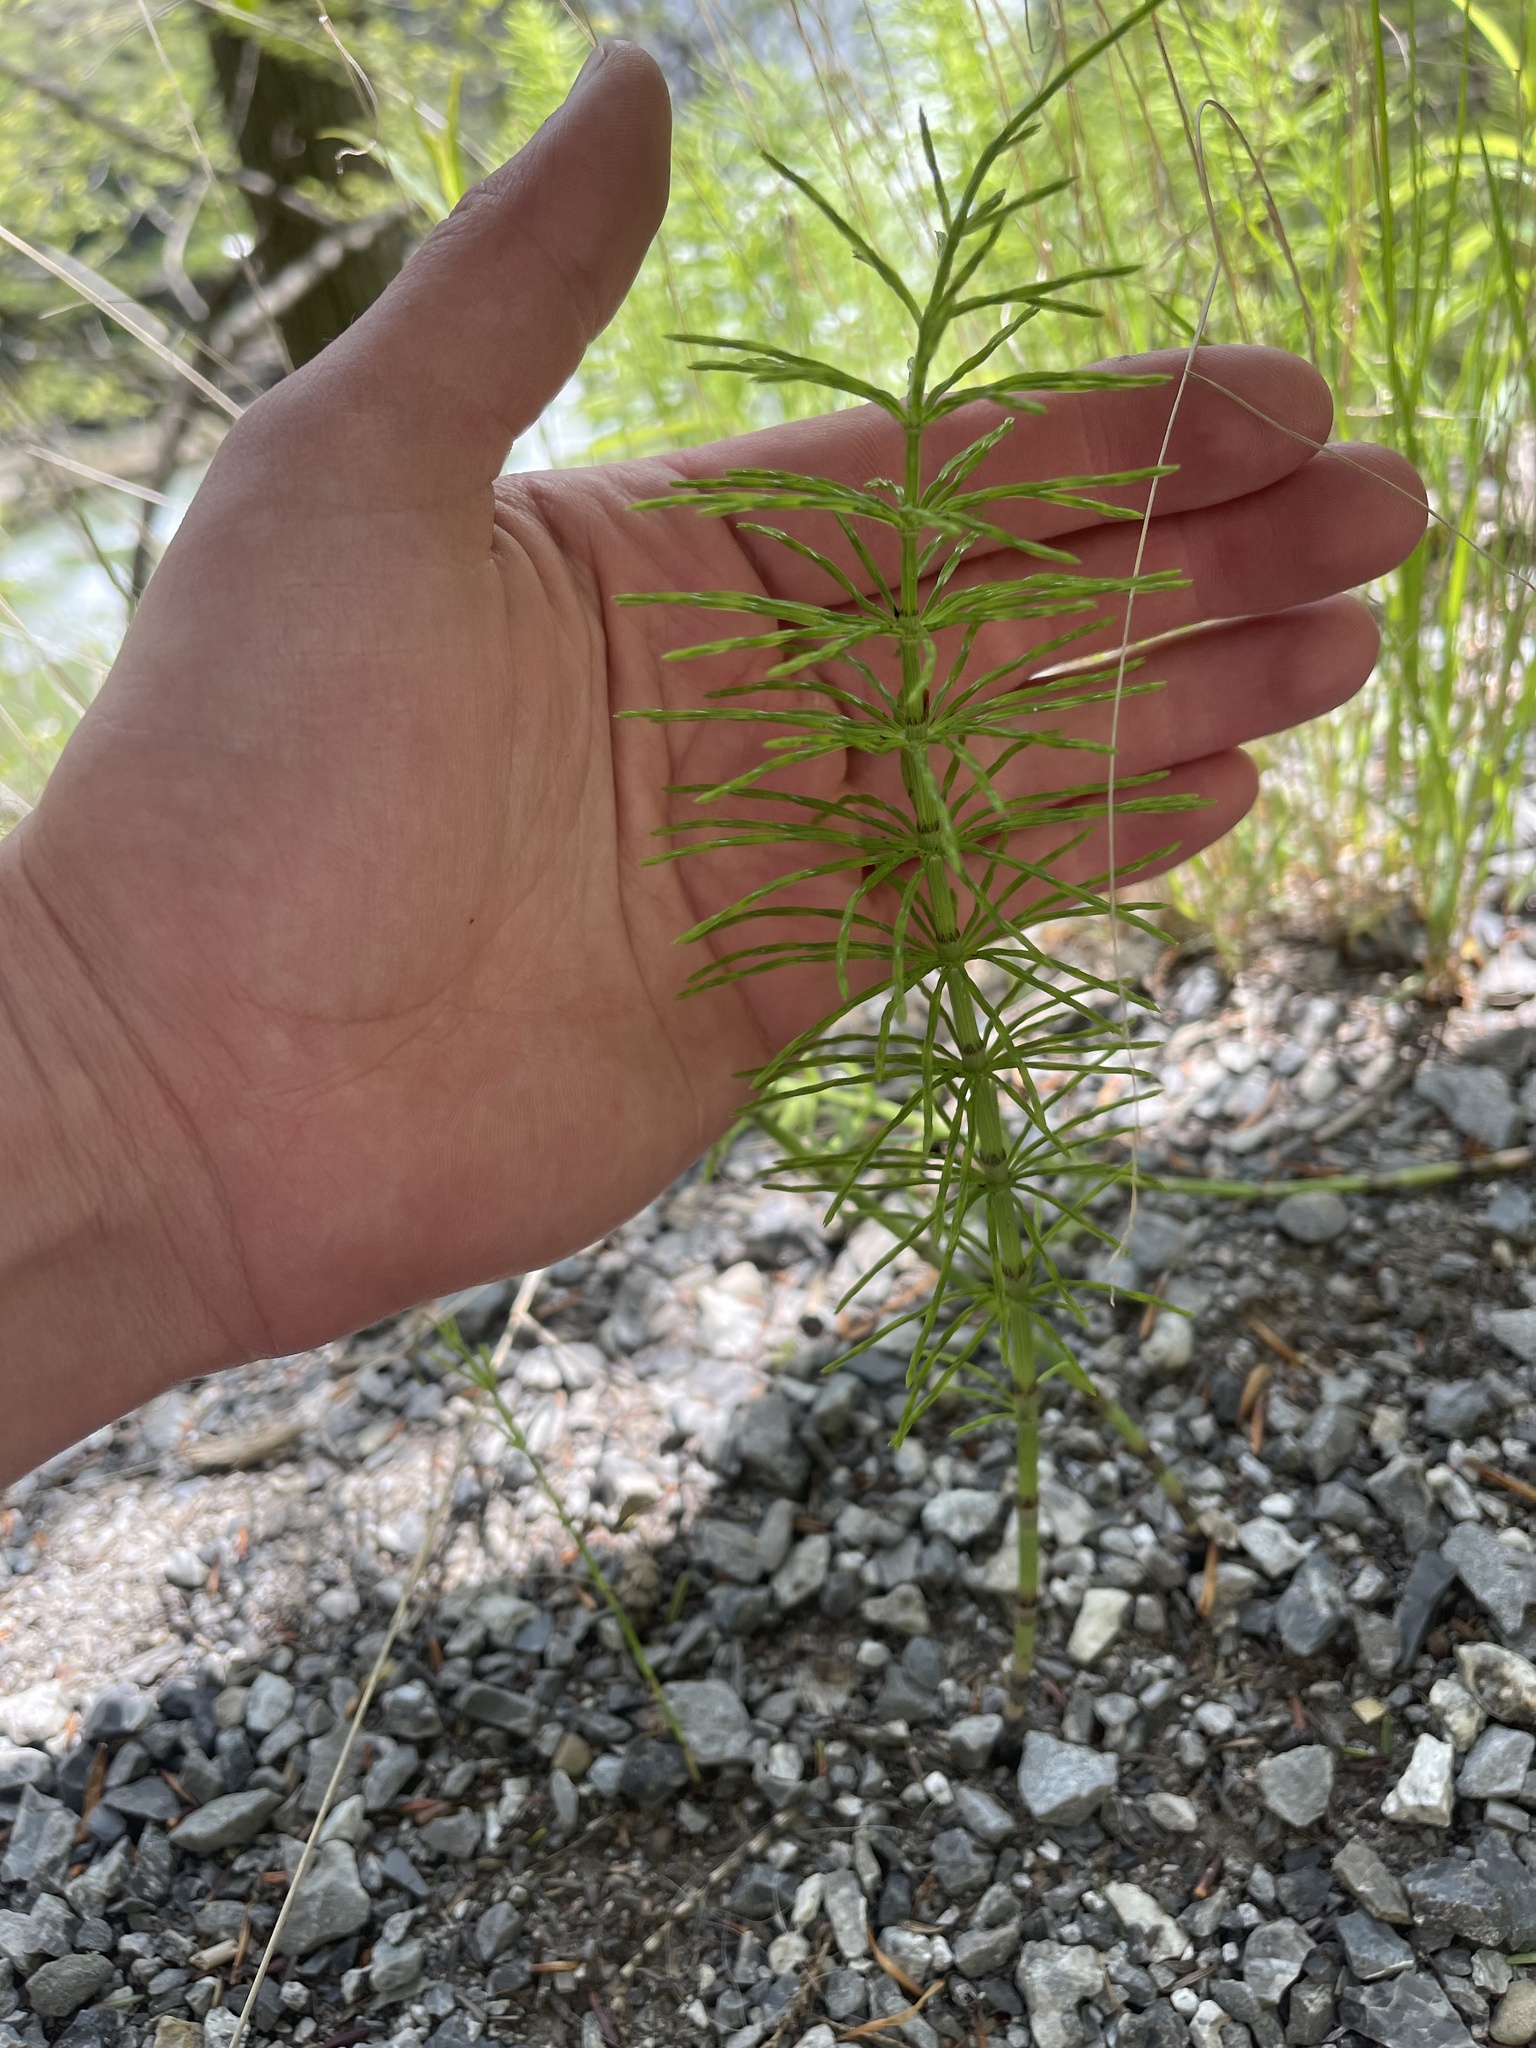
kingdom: Plantae
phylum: Tracheophyta
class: Polypodiopsida
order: Equisetales
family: Equisetaceae
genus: Equisetum
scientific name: Equisetum arvense
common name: Field horsetail
